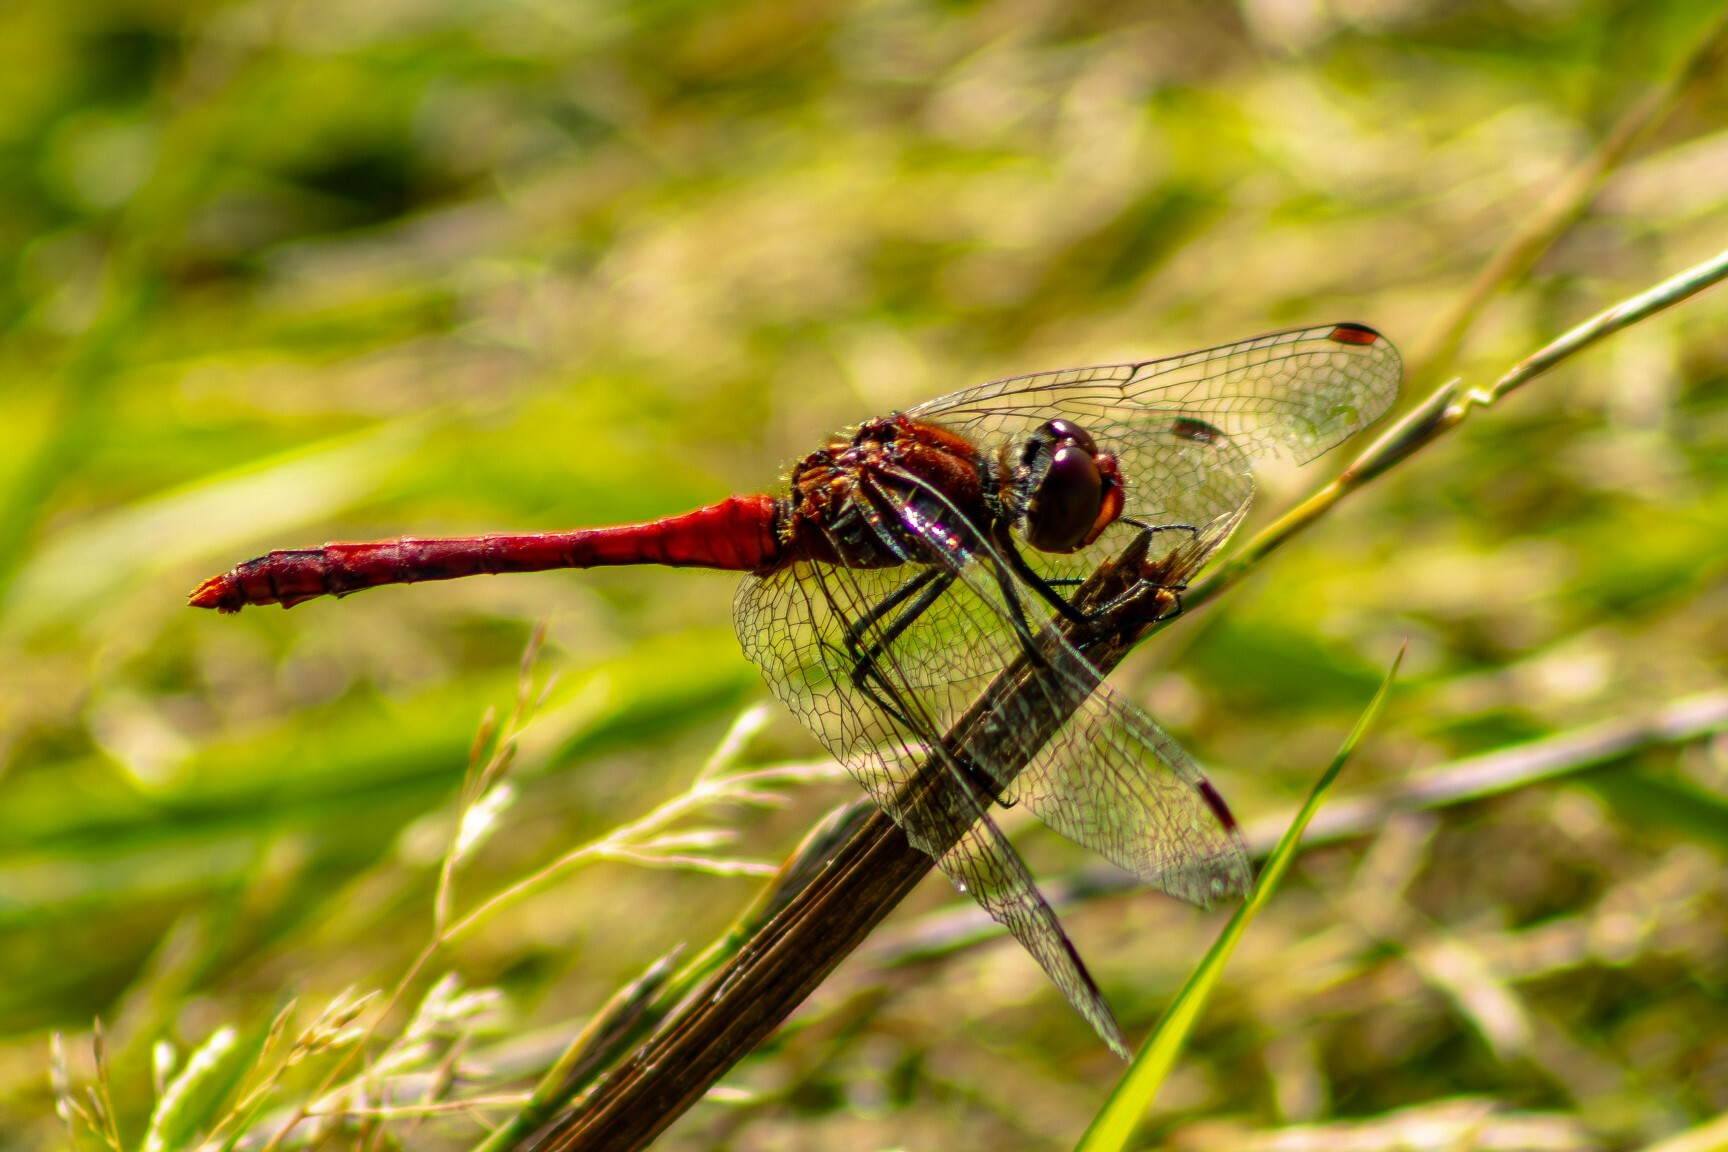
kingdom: Animalia
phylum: Arthropoda
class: Insecta
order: Odonata
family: Libellulidae
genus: Sympetrum
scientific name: Sympetrum sanguineum
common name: Ruddy darter
